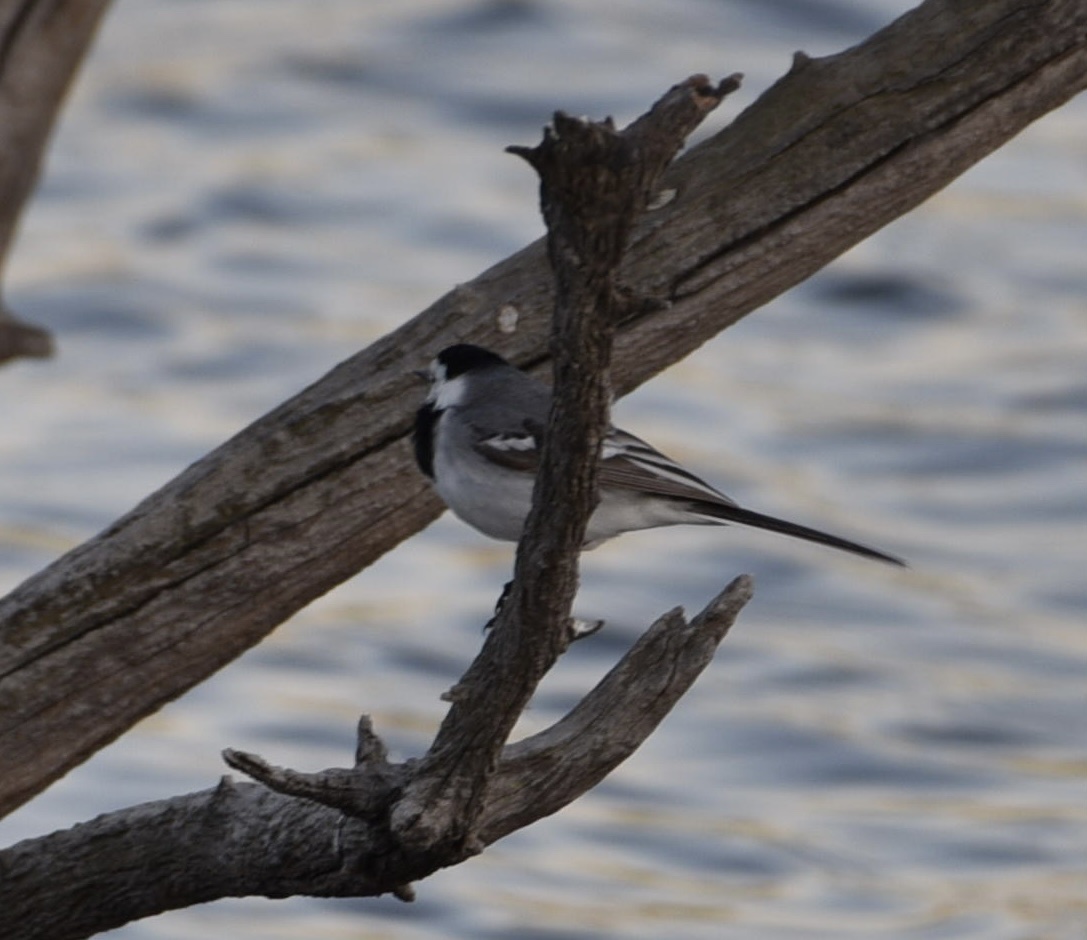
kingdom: Animalia
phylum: Chordata
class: Aves
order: Passeriformes
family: Motacillidae
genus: Motacilla
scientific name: Motacilla alba
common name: White wagtail
